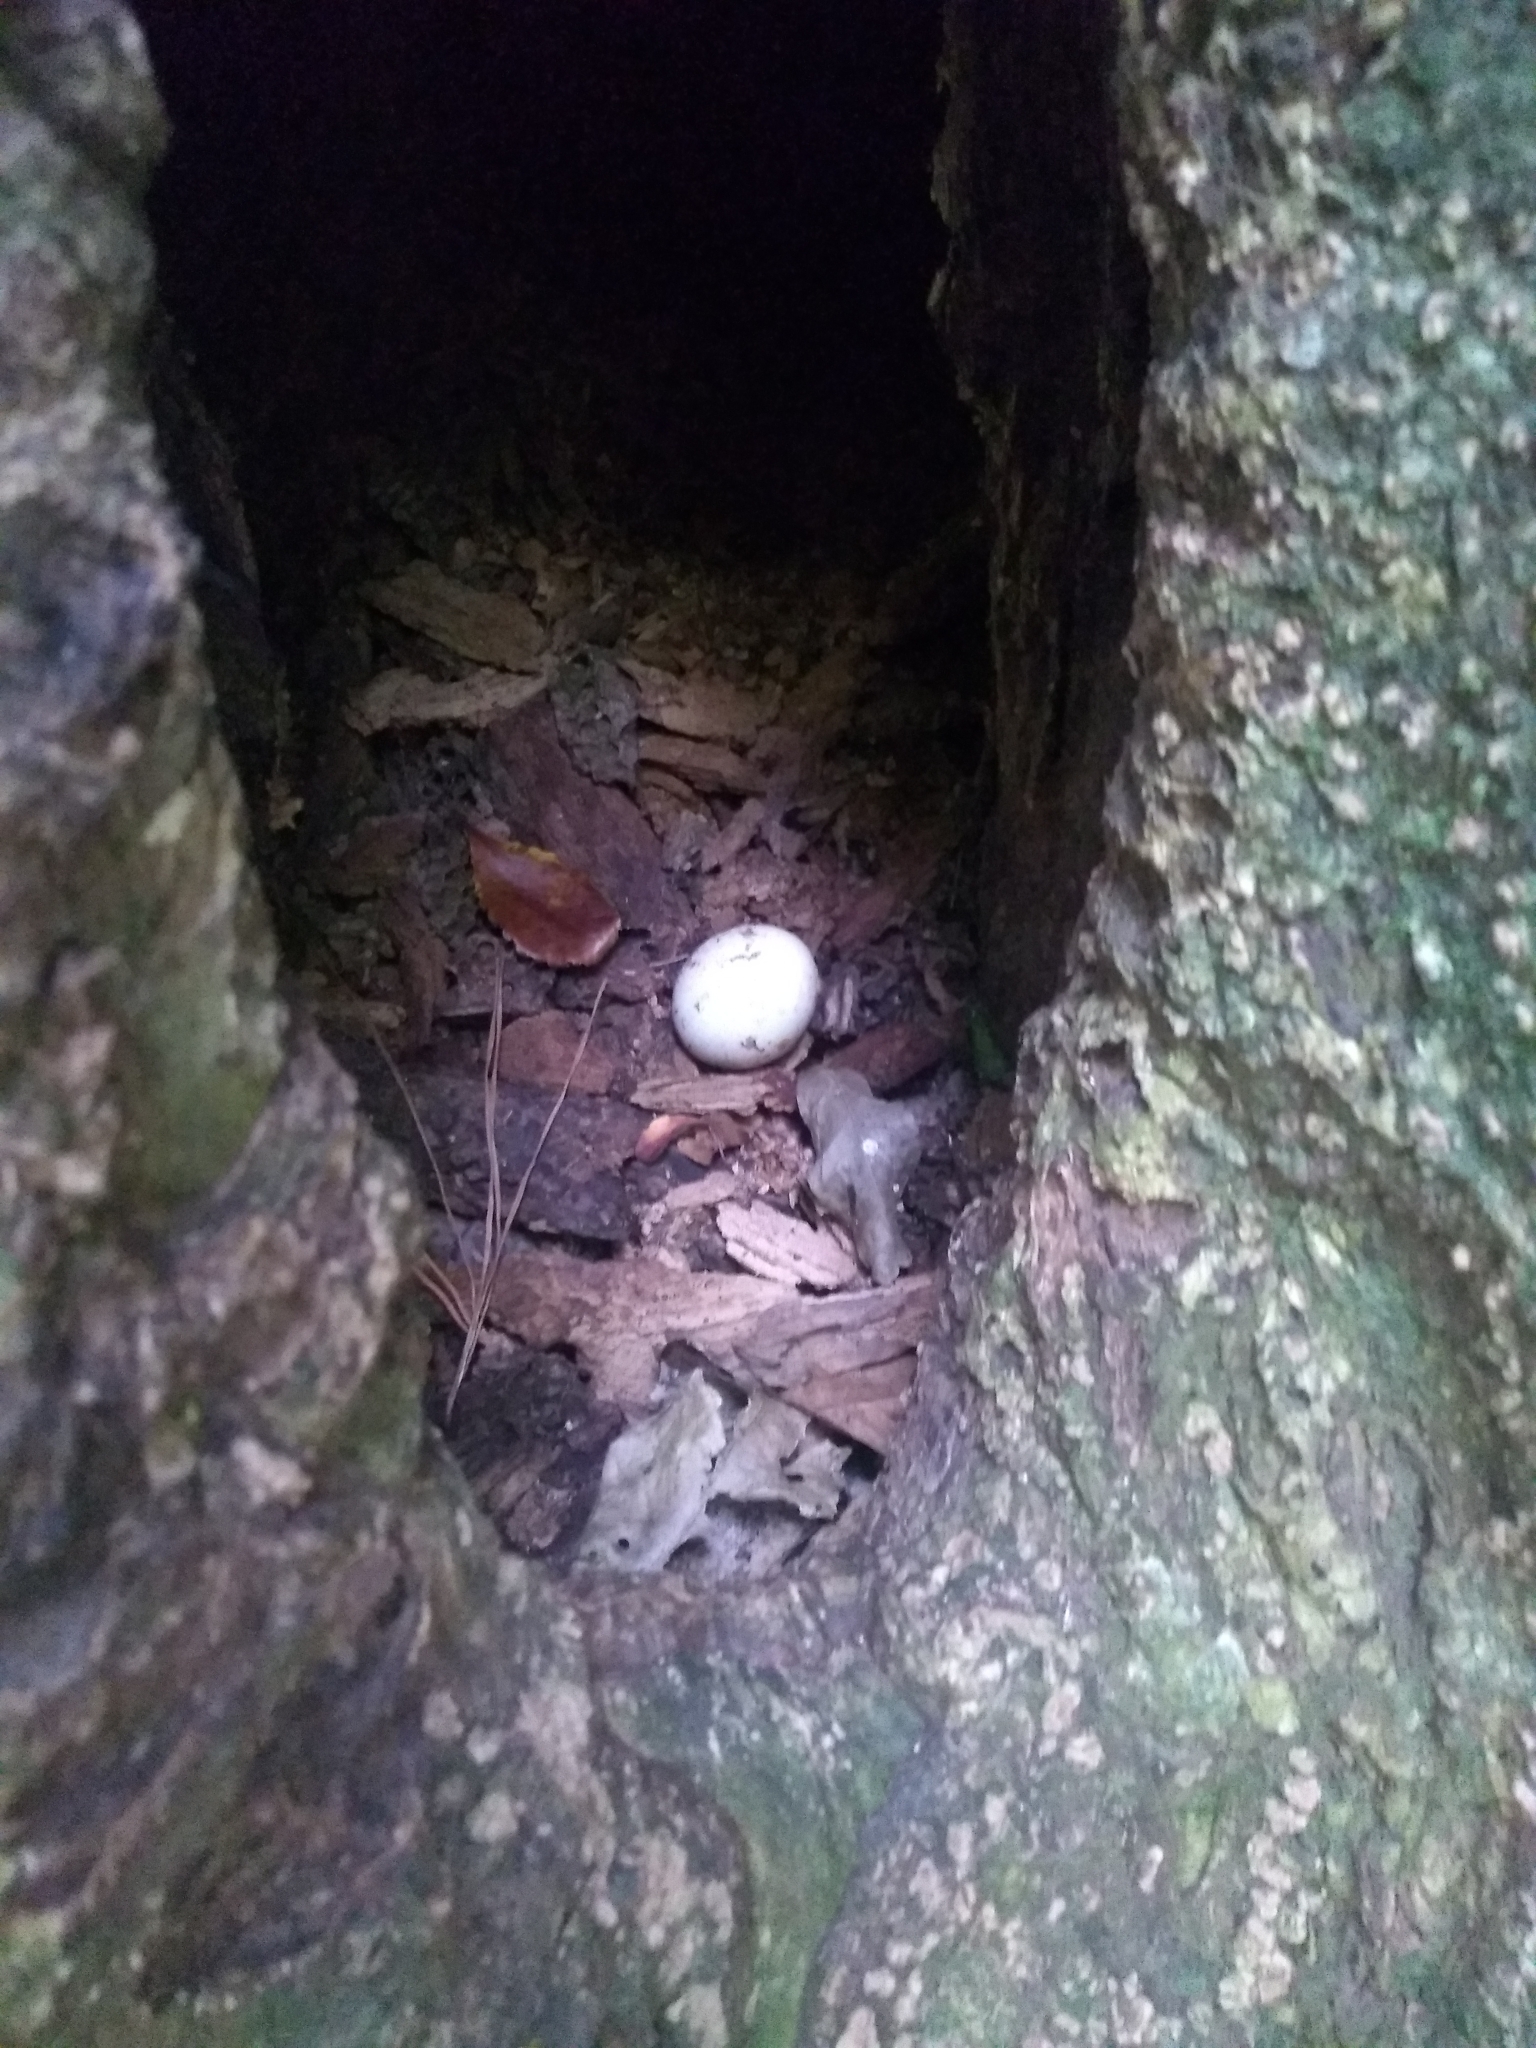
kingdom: Animalia
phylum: Chordata
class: Aves
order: Columbiformes
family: Columbidae
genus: Columba
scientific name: Columba livia
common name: Rock pigeon
